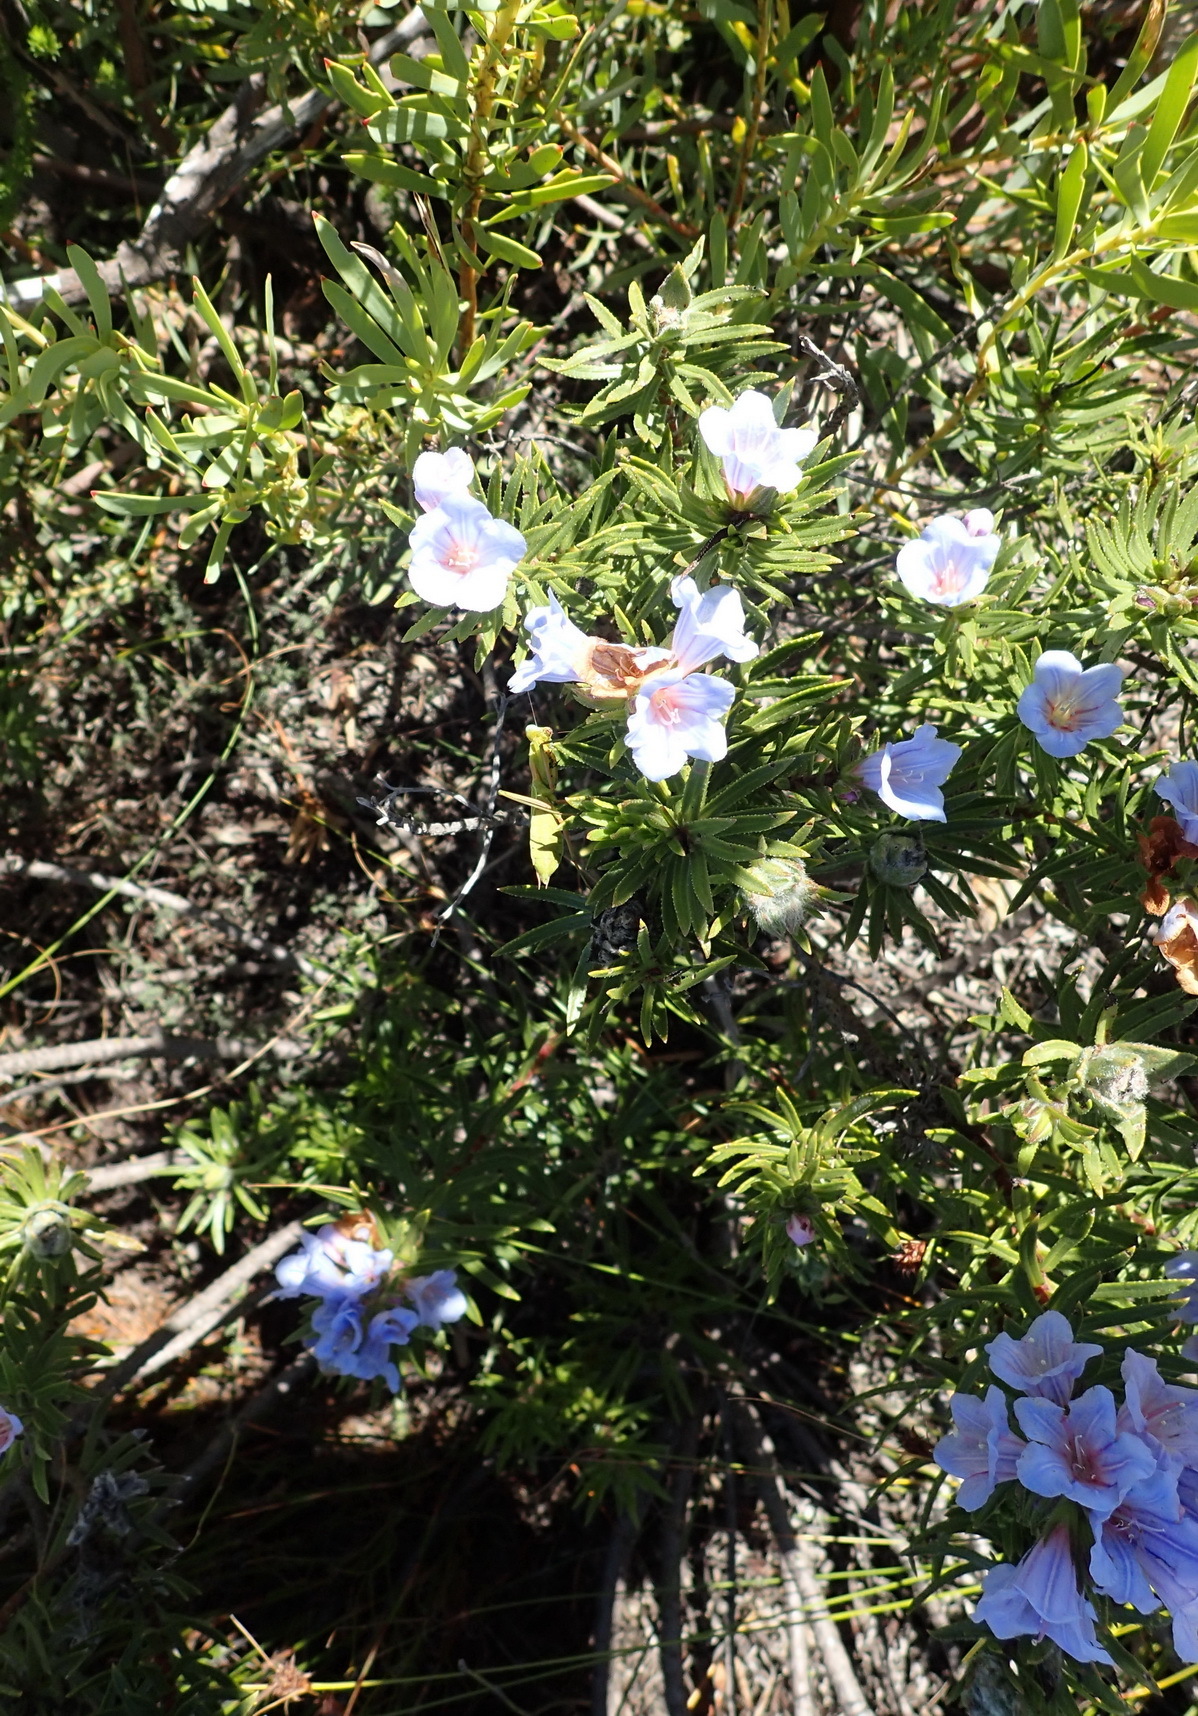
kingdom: Plantae
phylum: Tracheophyta
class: Magnoliopsida
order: Boraginales
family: Boraginaceae
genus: Lobostemon
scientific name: Lobostemon fruticosus
